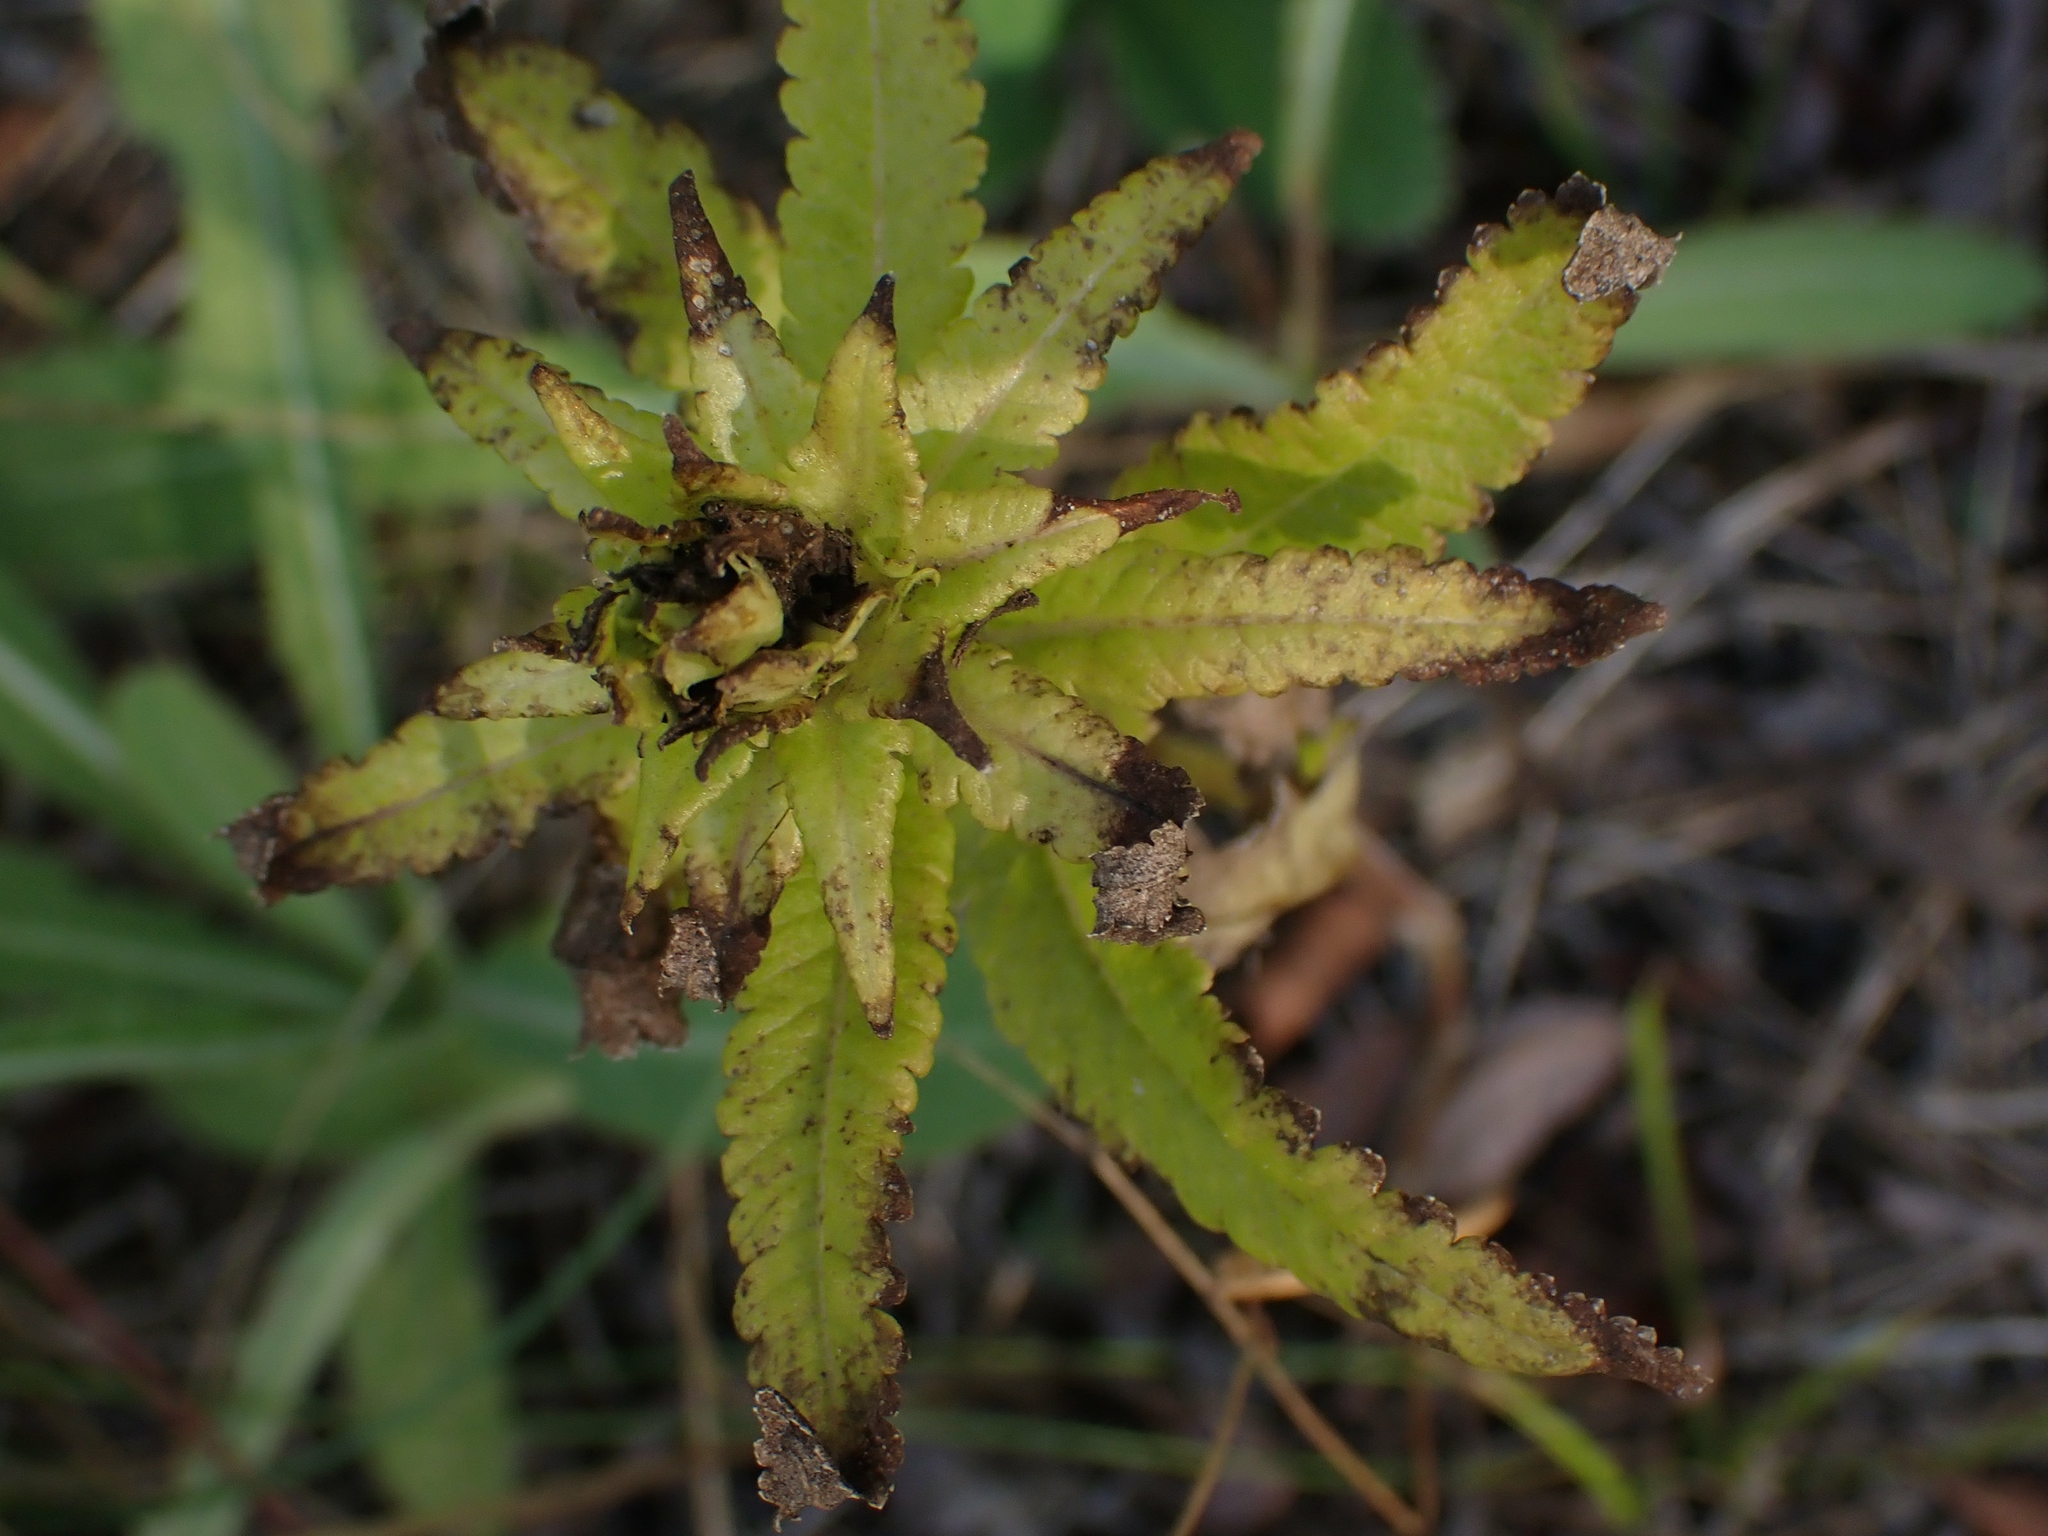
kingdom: Plantae
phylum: Tracheophyta
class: Magnoliopsida
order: Lamiales
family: Orobanchaceae
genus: Pedicularis
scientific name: Pedicularis lanceolata
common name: Swamp lousewort
